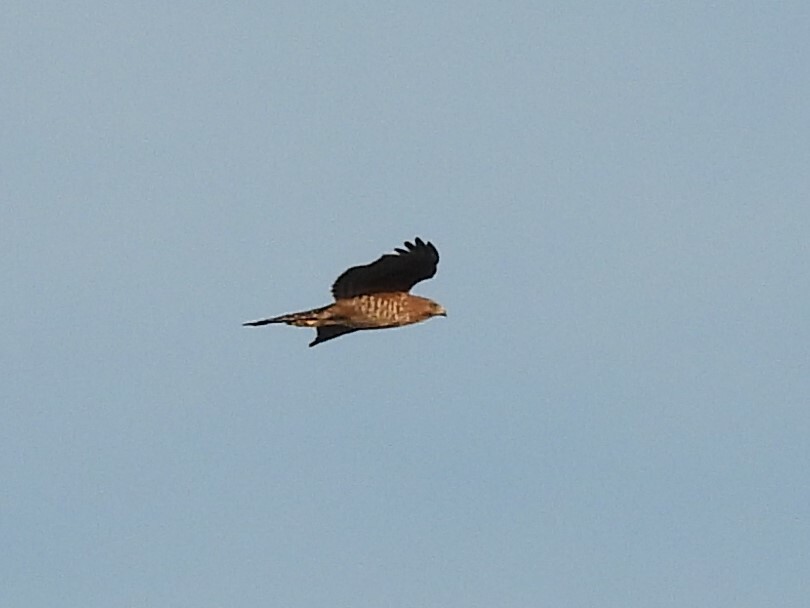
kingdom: Animalia
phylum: Chordata
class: Aves
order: Accipitriformes
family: Accipitridae
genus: Buteo
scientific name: Buteo lineatus
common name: Red-shouldered hawk
